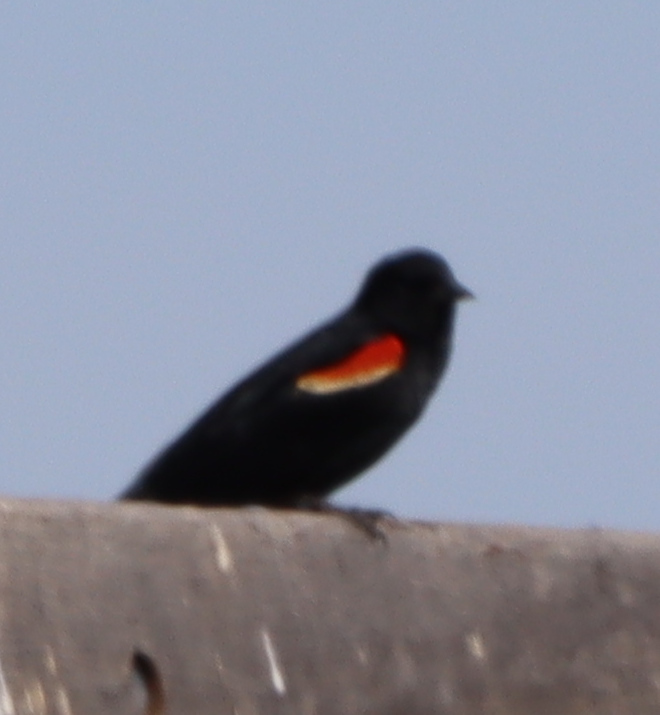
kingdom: Animalia
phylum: Chordata
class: Aves
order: Passeriformes
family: Icteridae
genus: Agelaius
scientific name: Agelaius phoeniceus
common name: Red-winged blackbird
